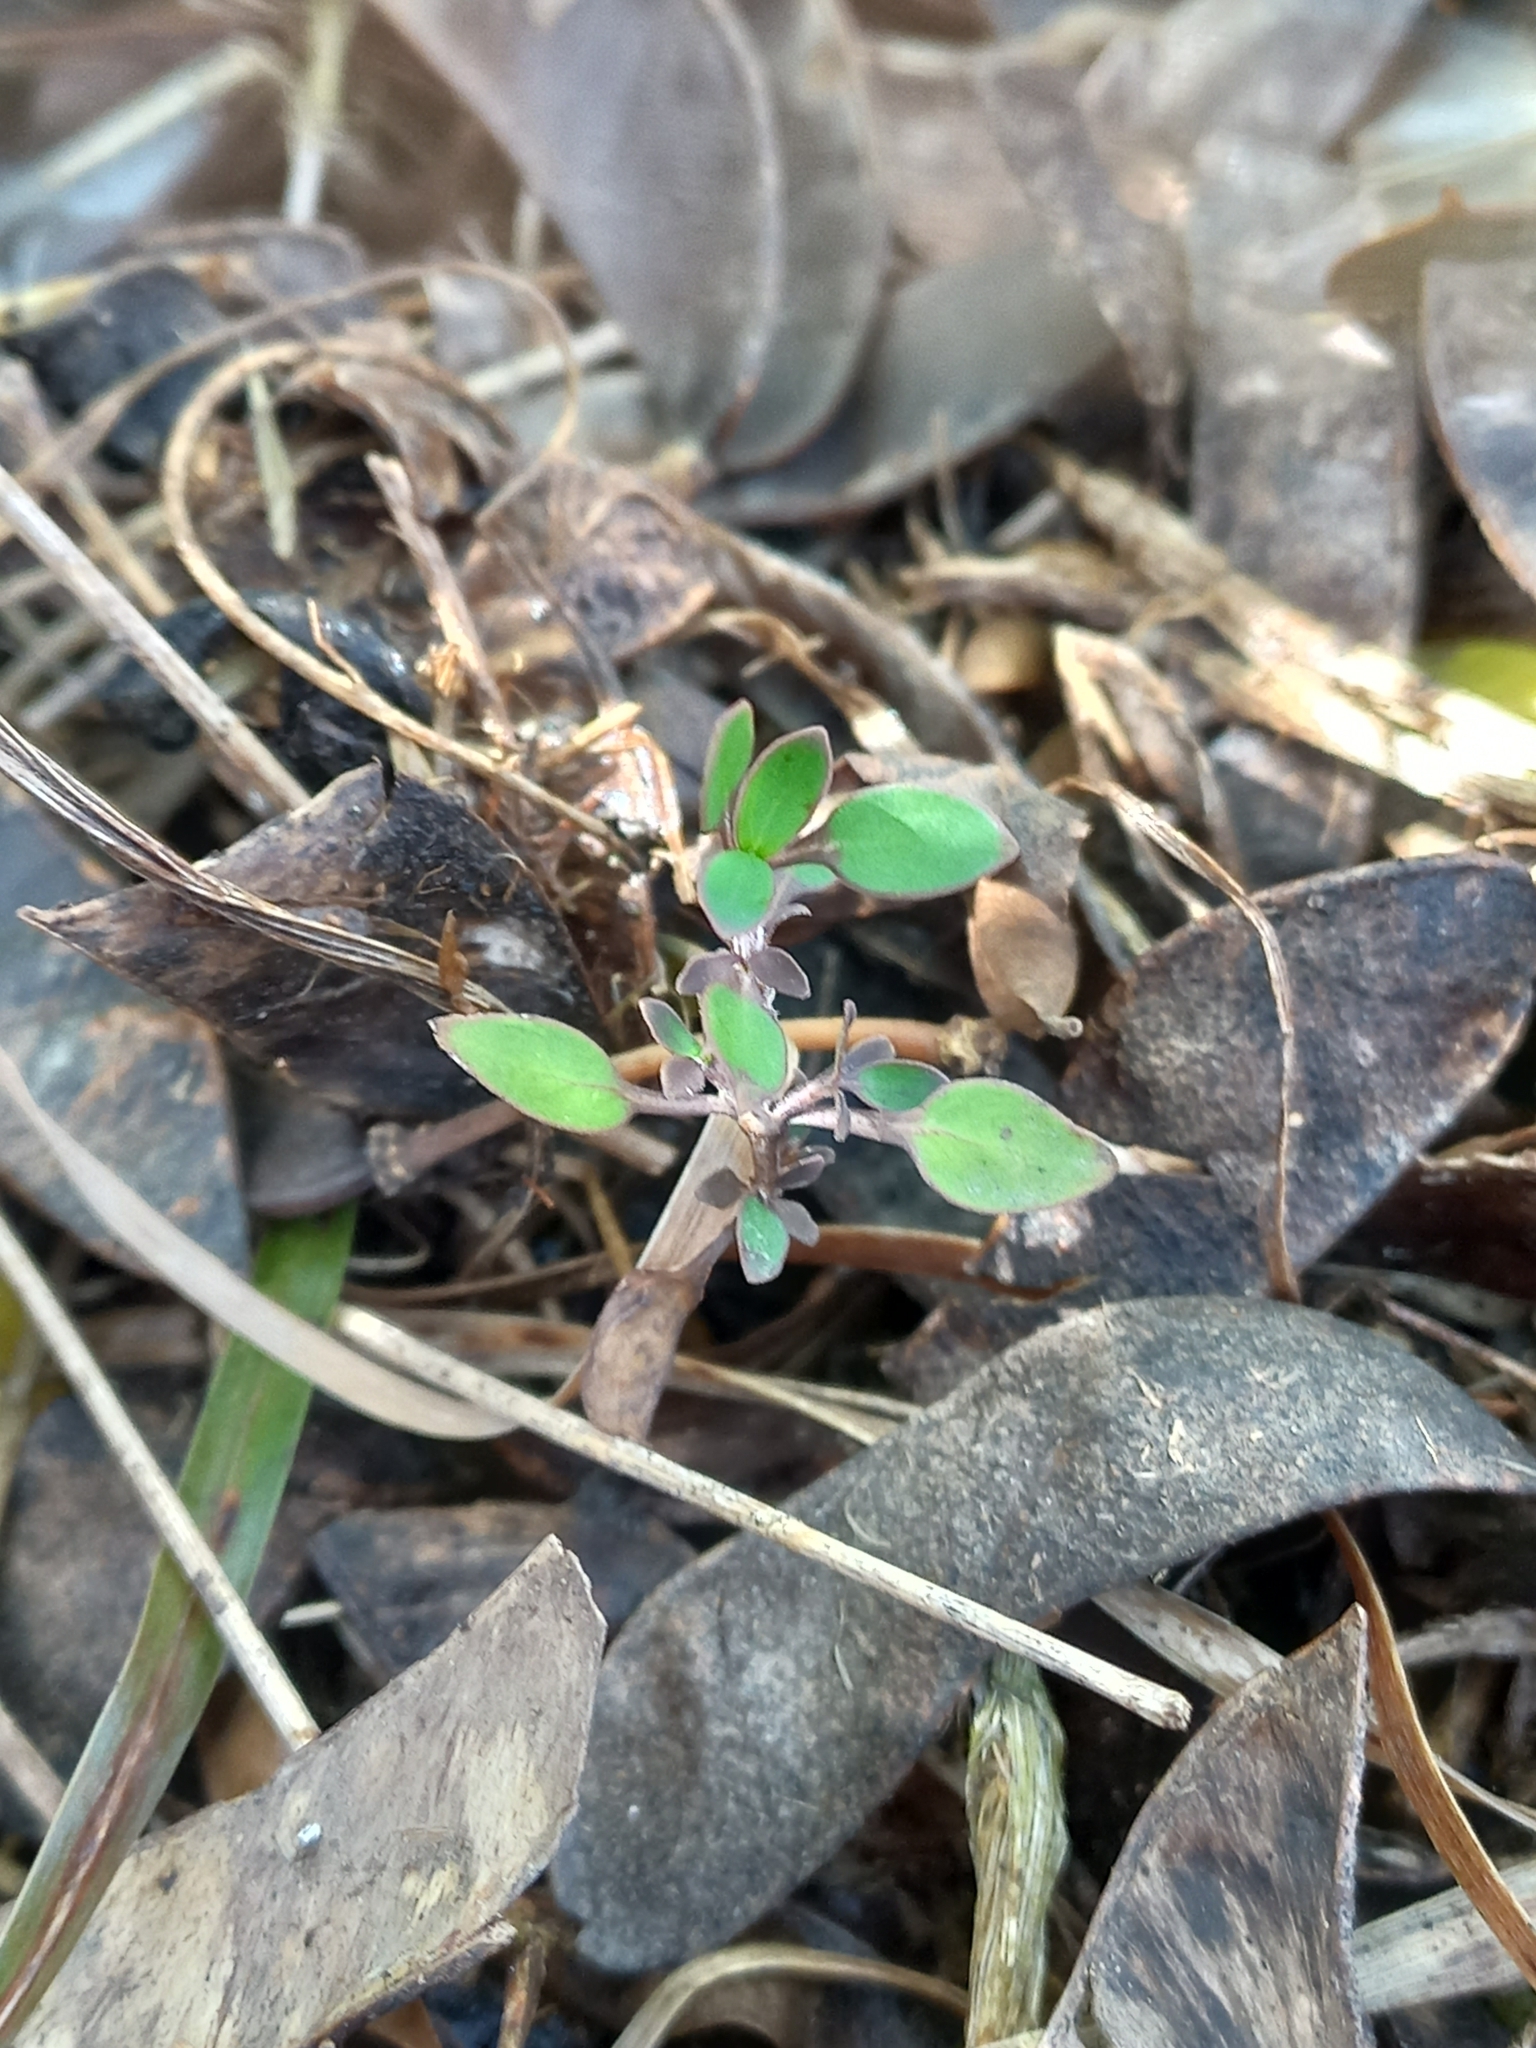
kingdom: Plantae
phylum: Tracheophyta
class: Magnoliopsida
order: Gentianales
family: Rubiaceae
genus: Coprosma
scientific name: Coprosma propinqua
